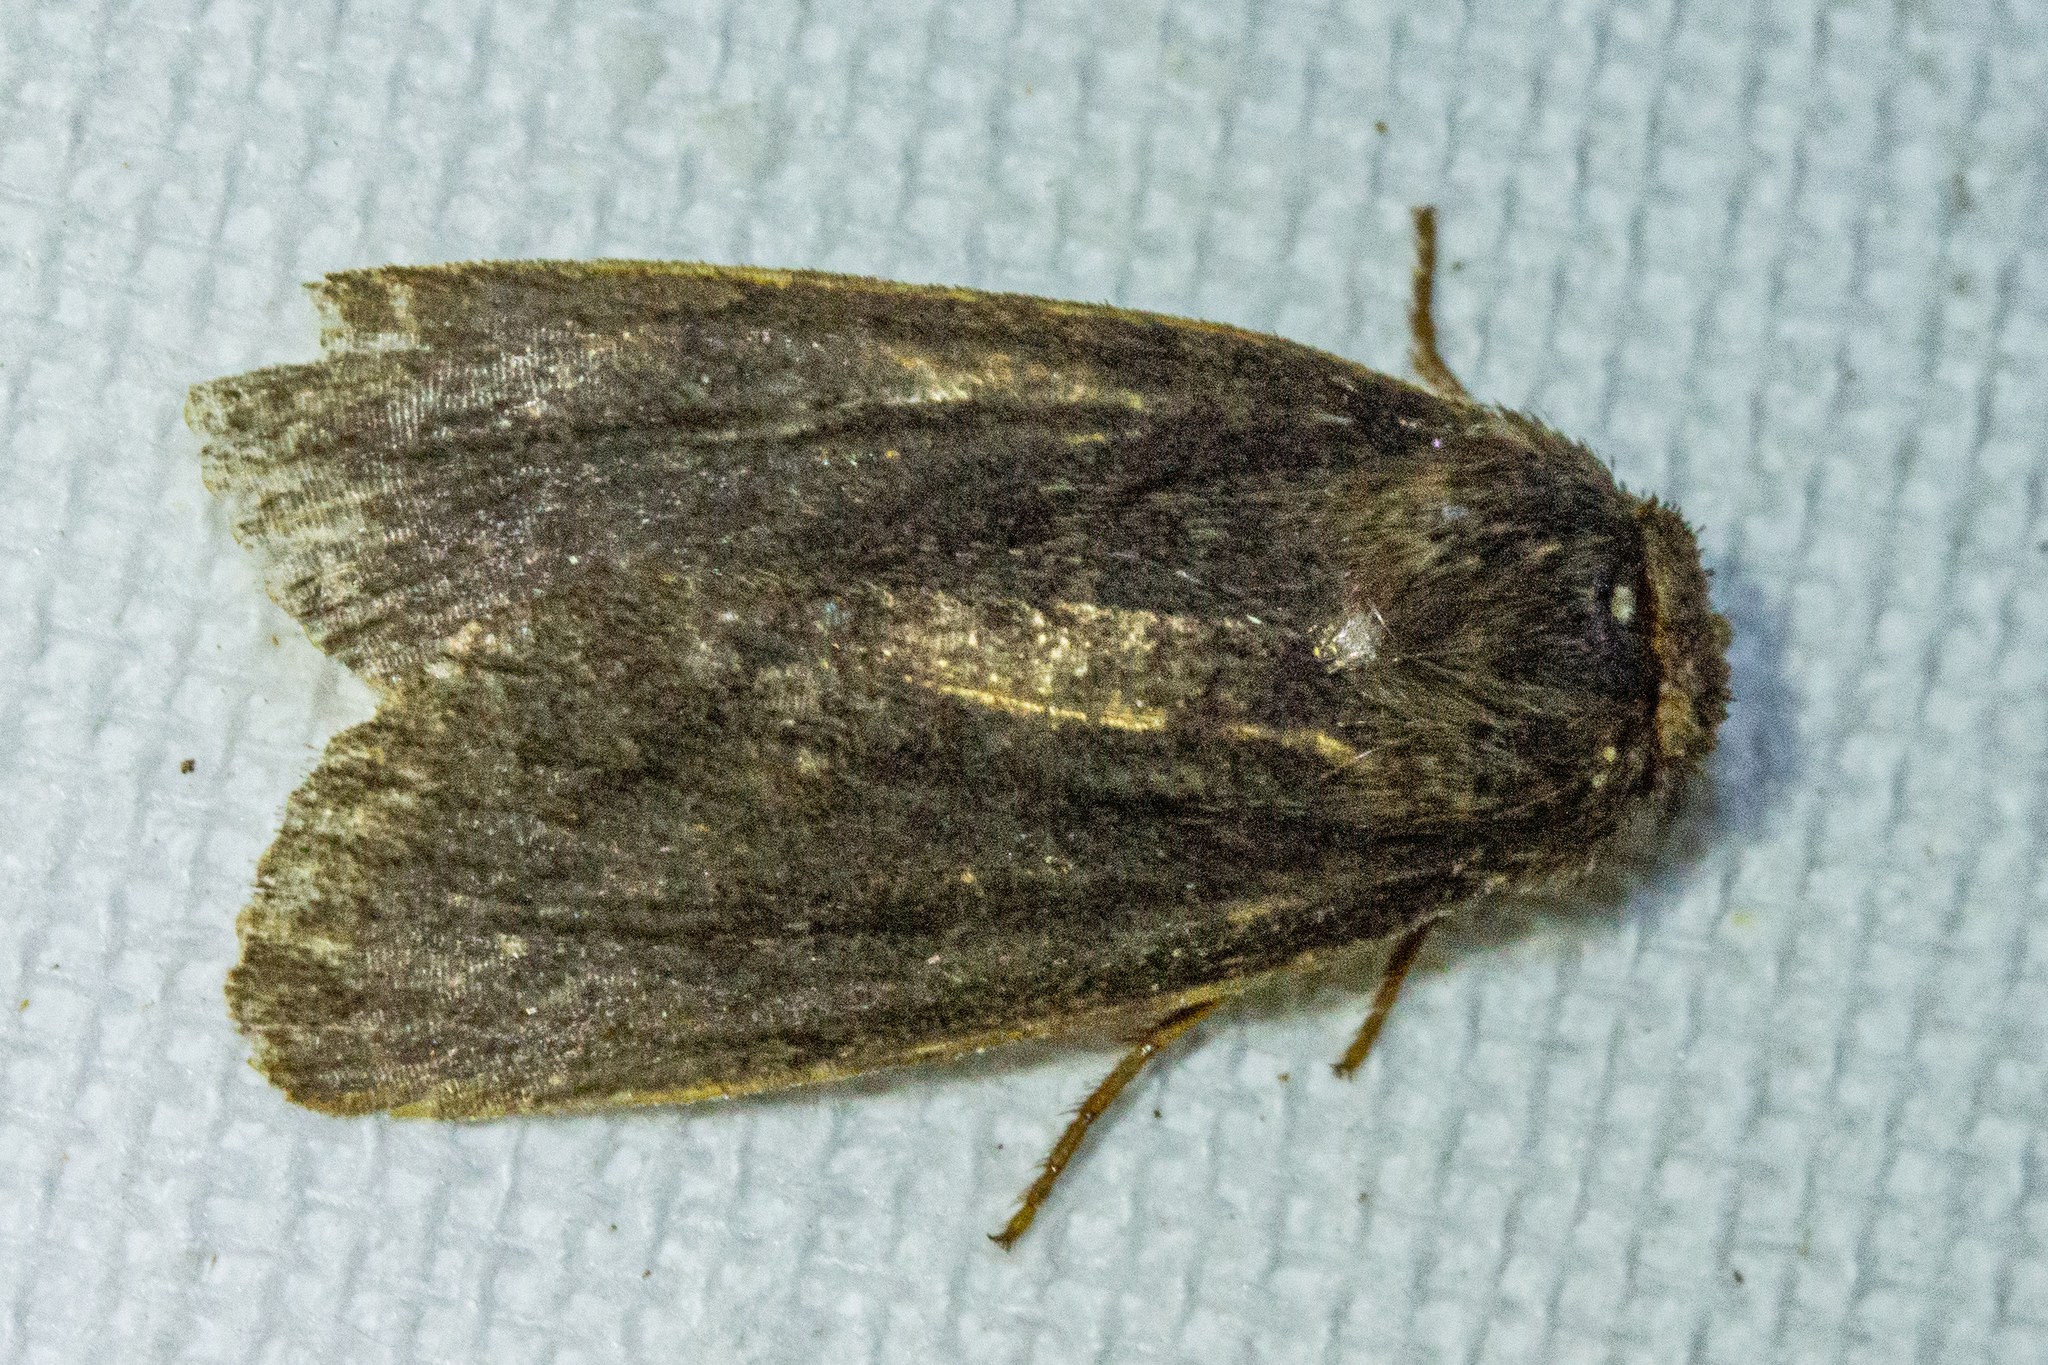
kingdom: Animalia
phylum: Arthropoda
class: Insecta
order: Lepidoptera
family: Noctuidae
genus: Bityla
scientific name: Bityla defigurata
